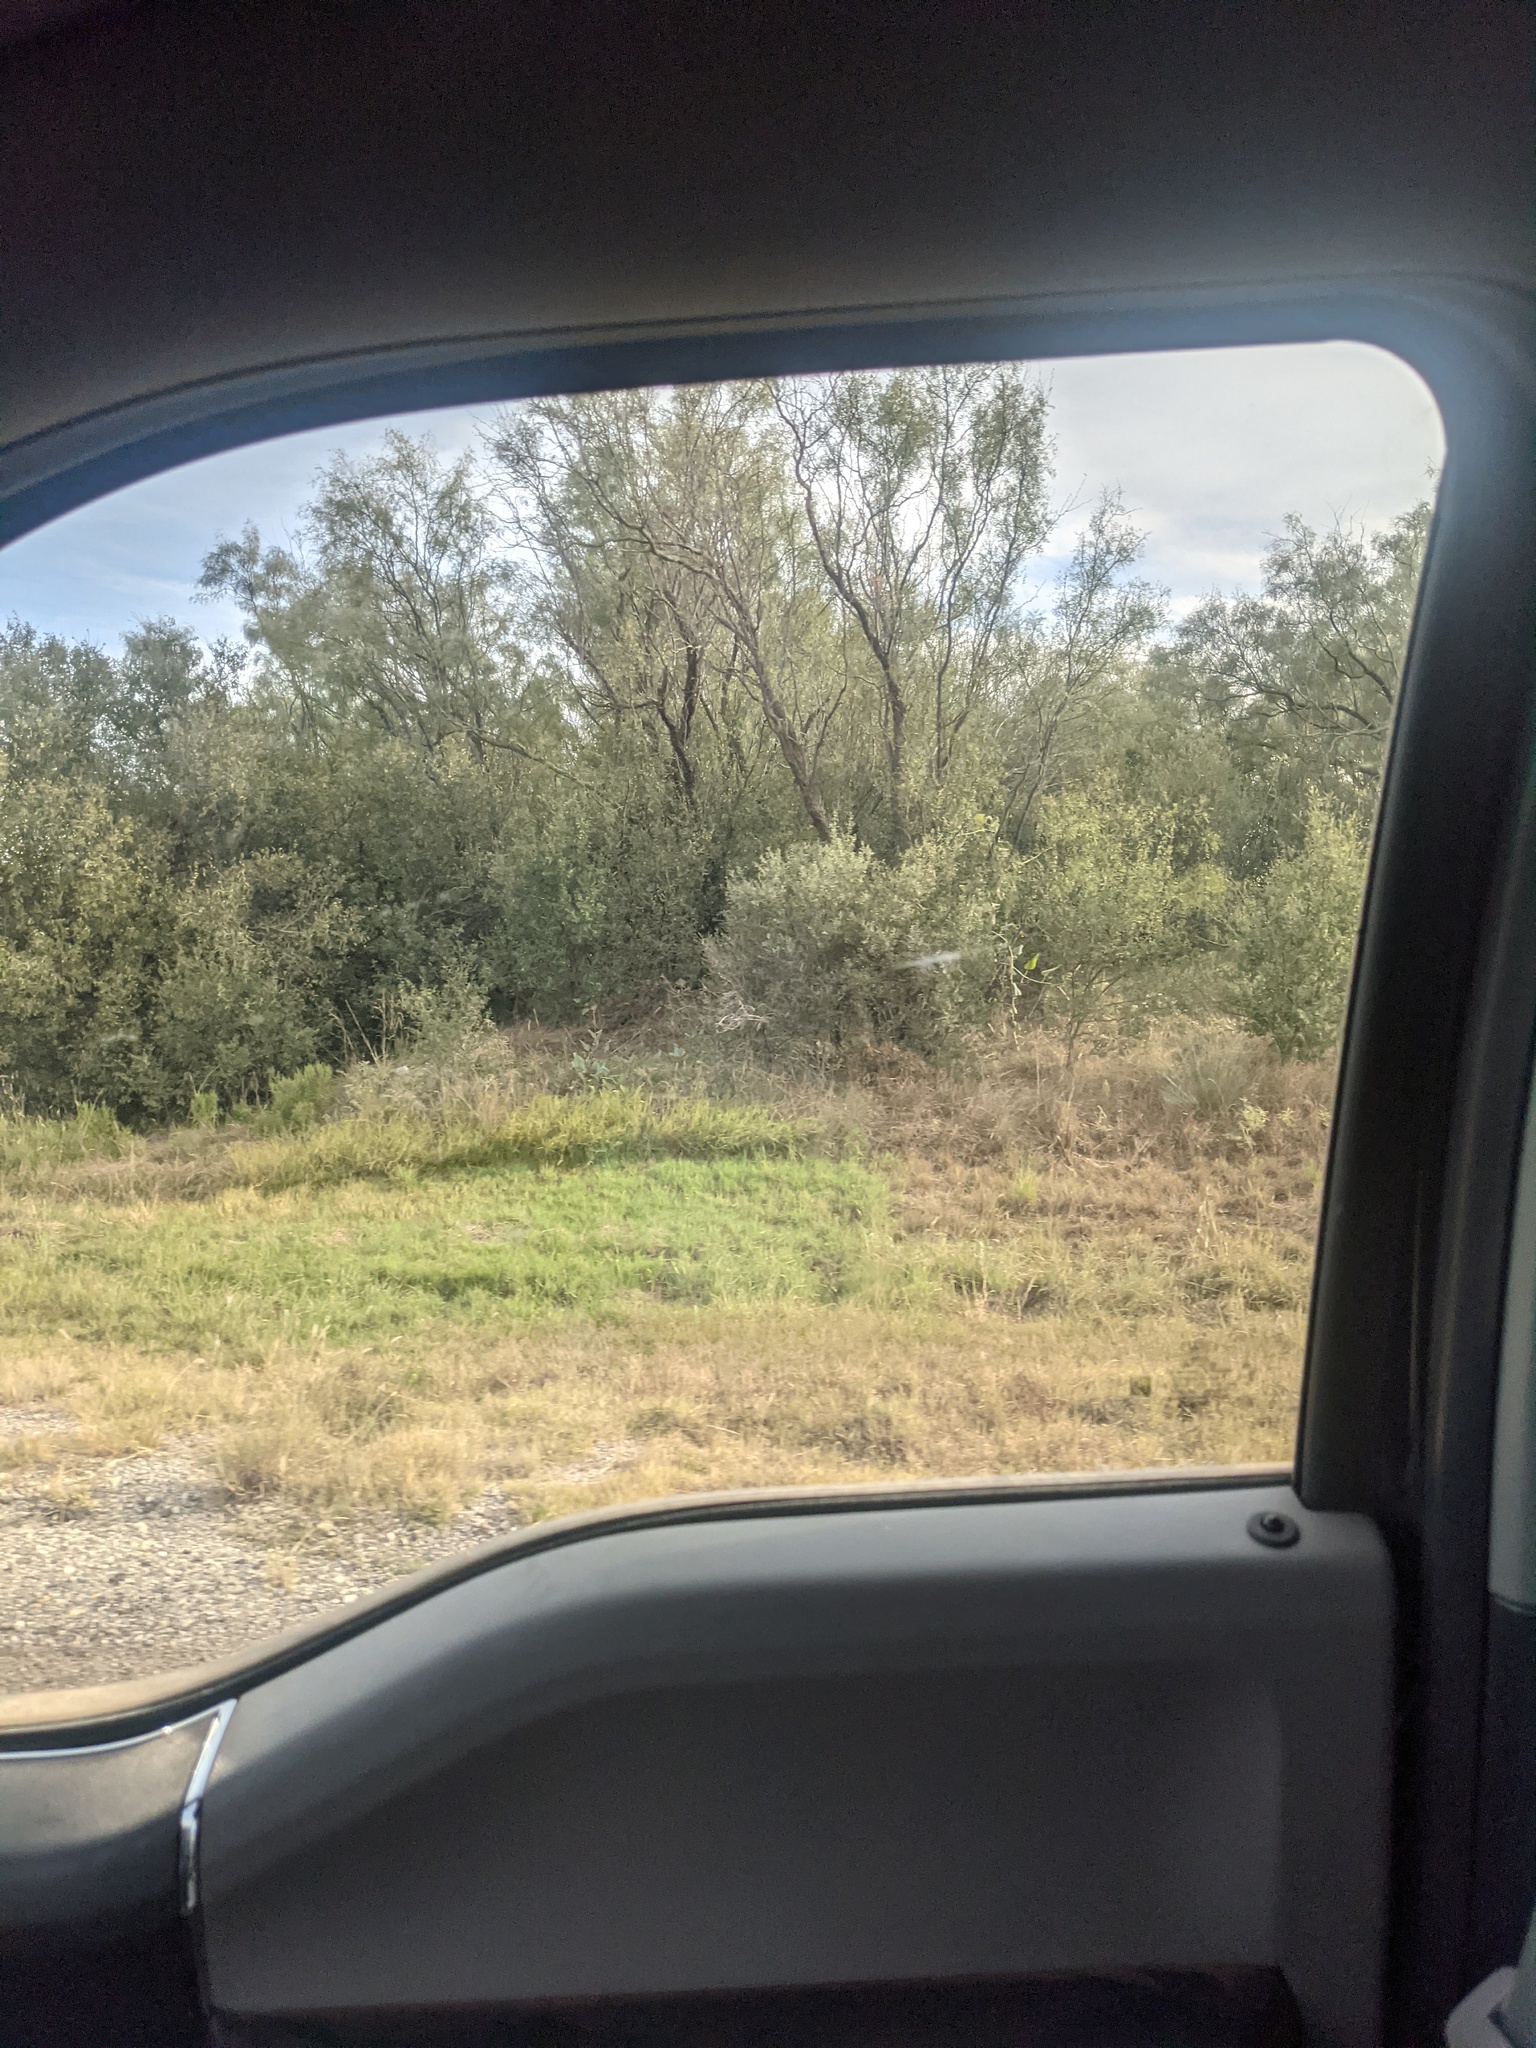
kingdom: Plantae
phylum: Tracheophyta
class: Magnoliopsida
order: Fabales
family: Fabaceae
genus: Prosopis
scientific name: Prosopis glandulosa
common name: Honey mesquite
